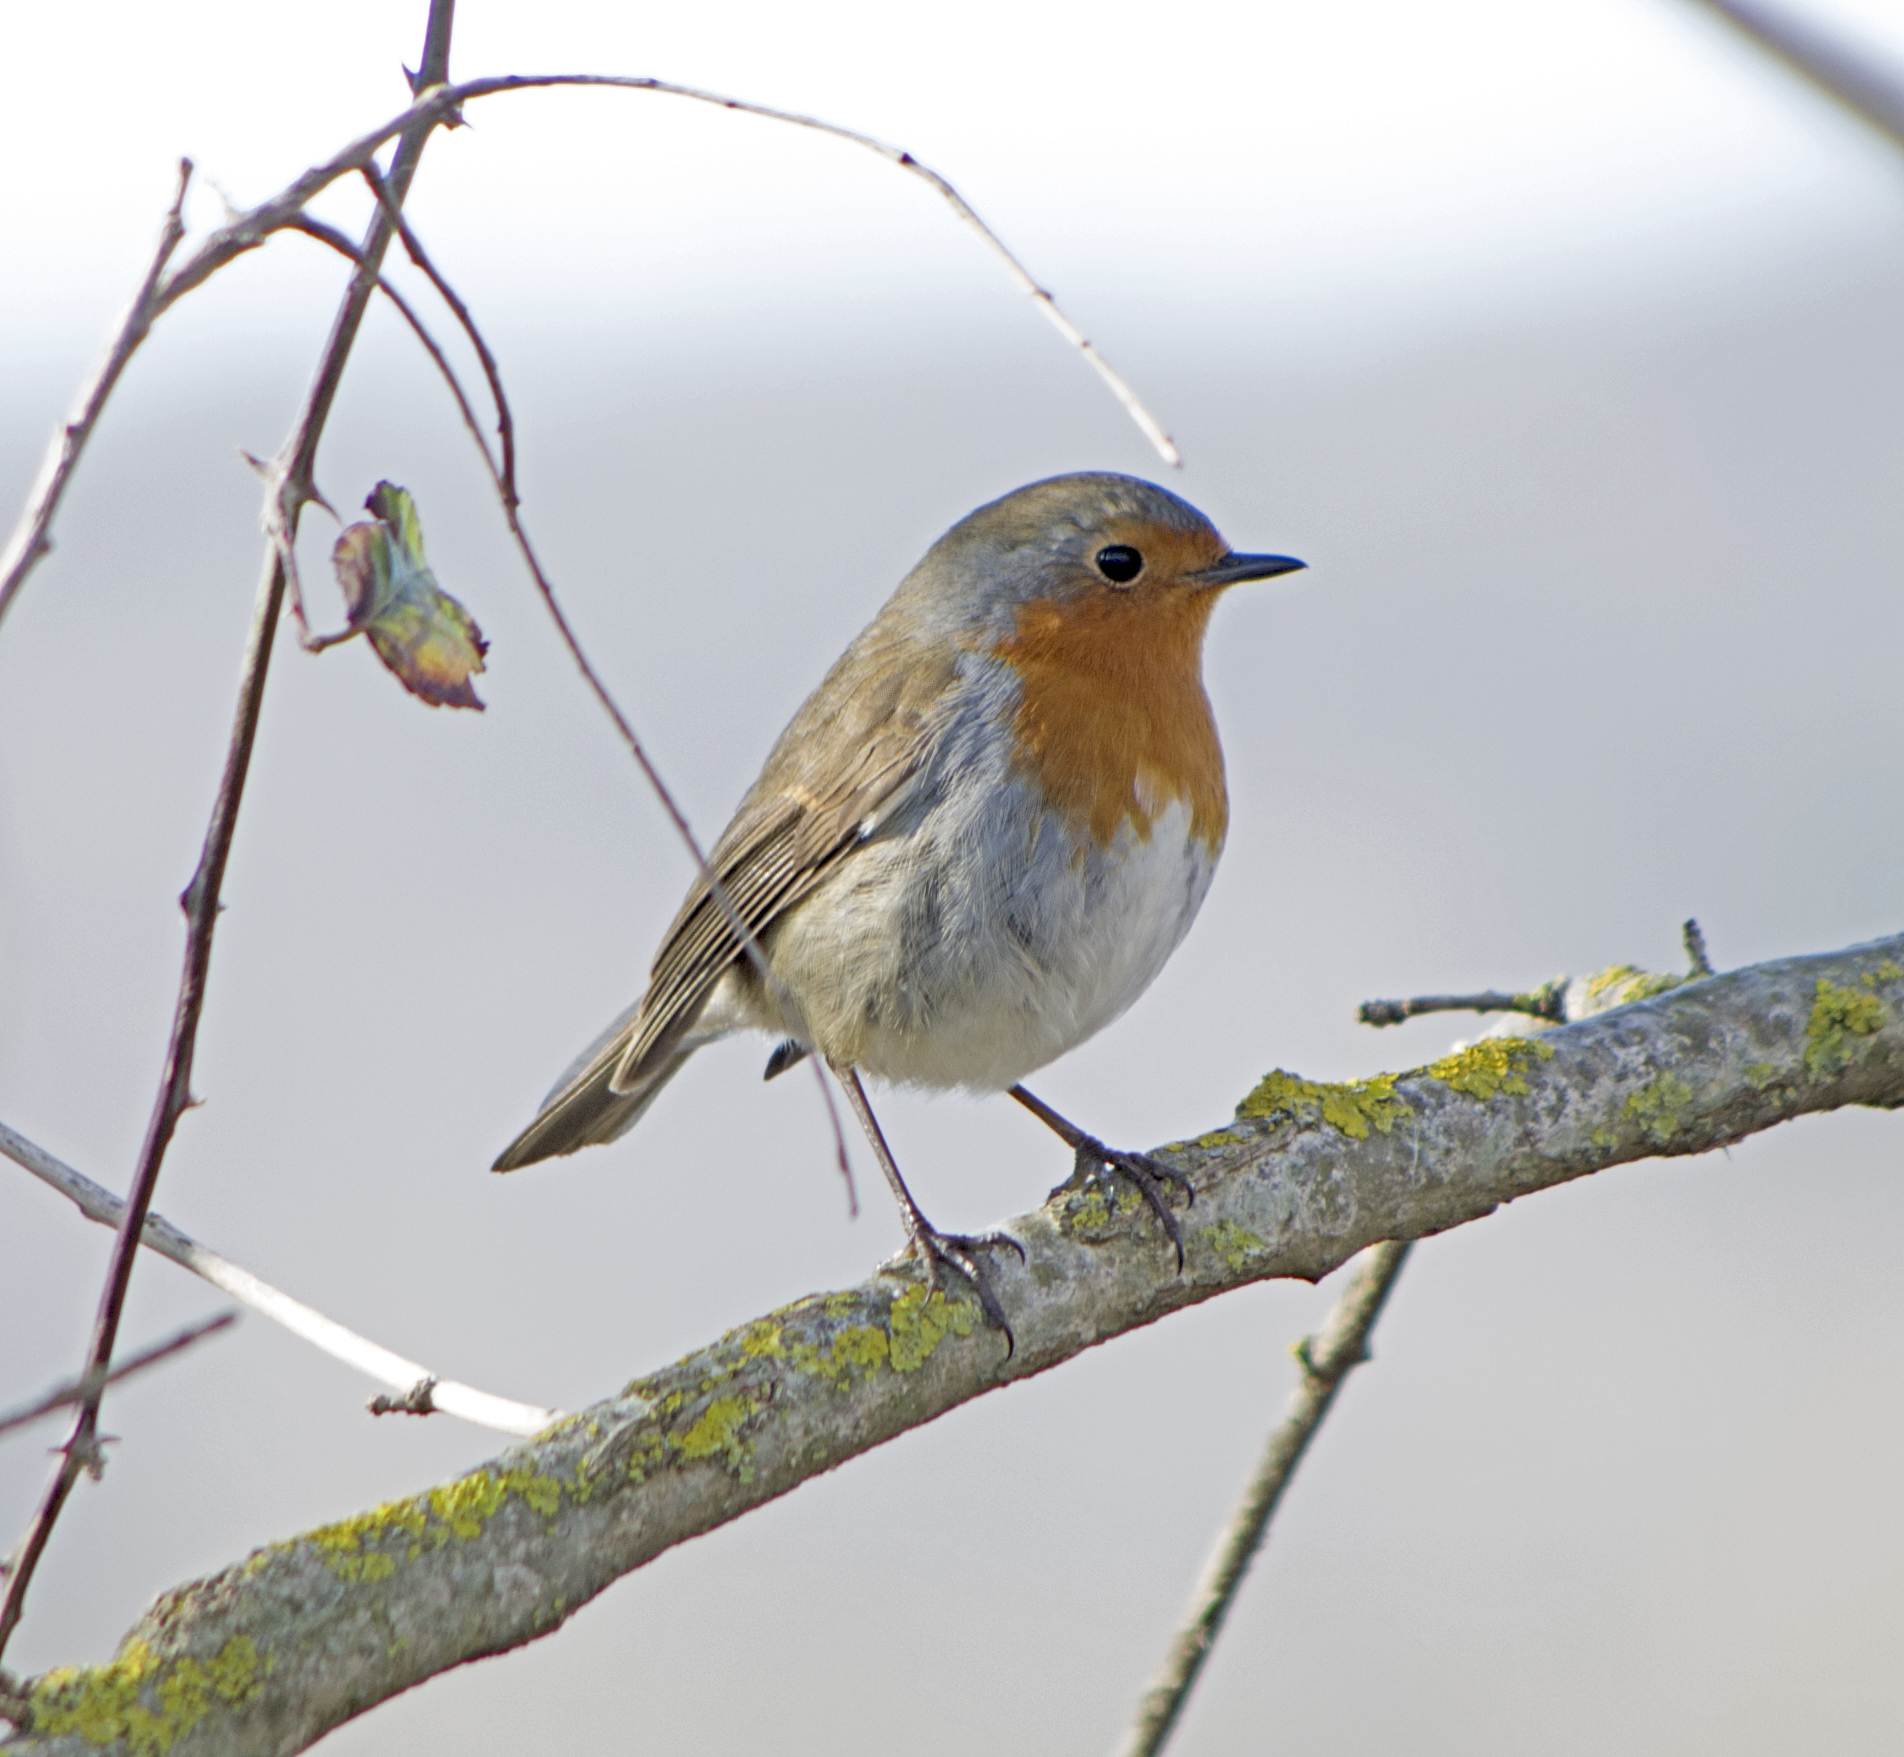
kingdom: Animalia
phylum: Chordata
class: Aves
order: Passeriformes
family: Muscicapidae
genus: Erithacus
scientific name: Erithacus rubecula
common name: European robin
